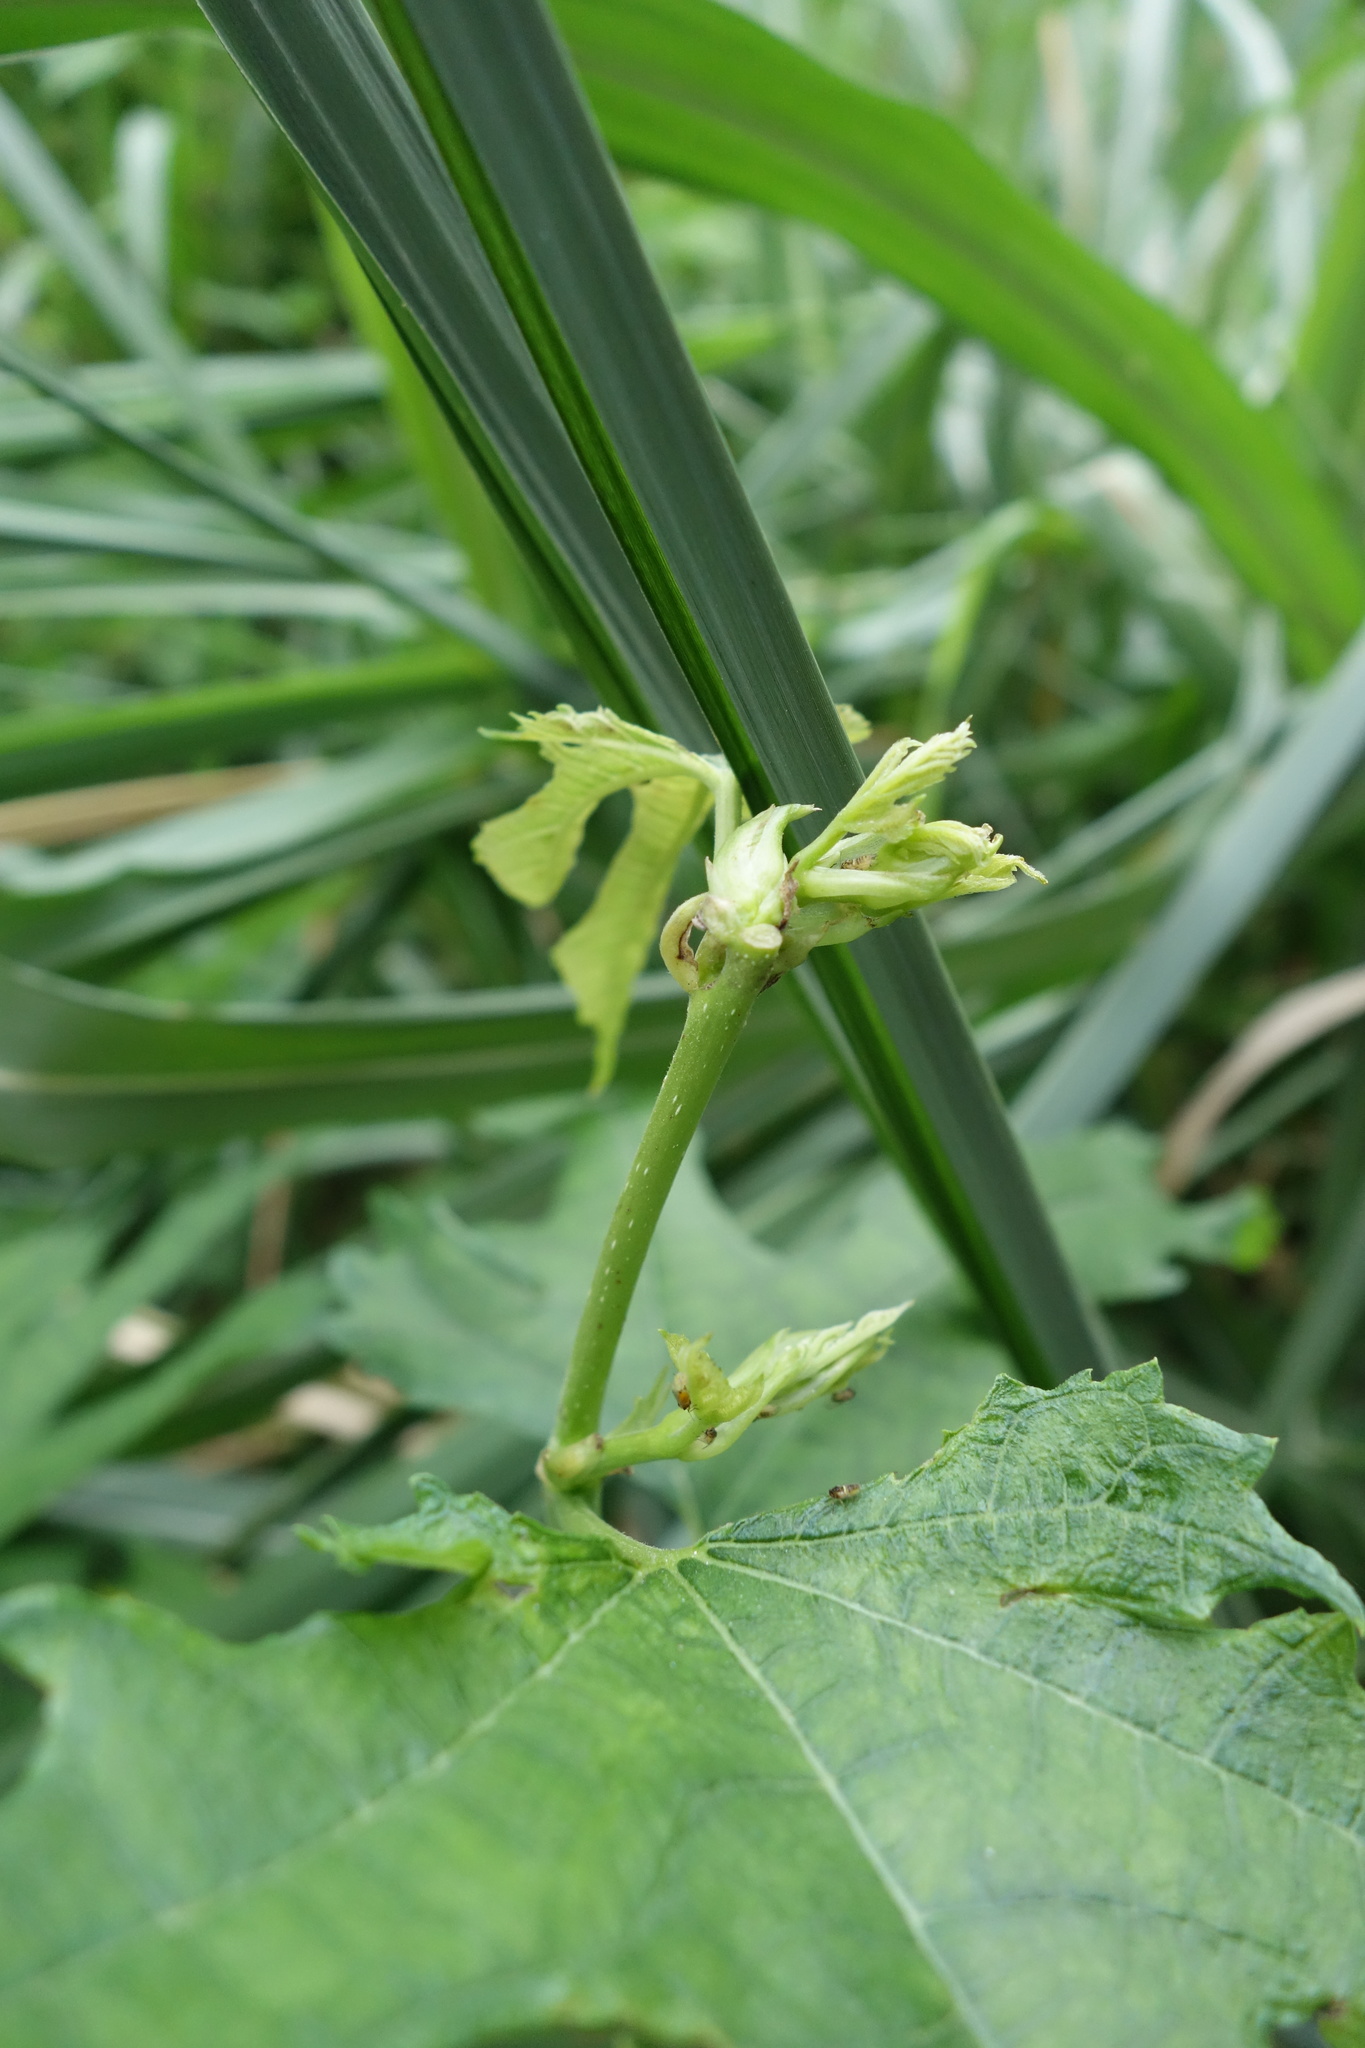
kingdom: Plantae
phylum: Tracheophyta
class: Magnoliopsida
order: Rosales
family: Moraceae
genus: Morus
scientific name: Morus indica
